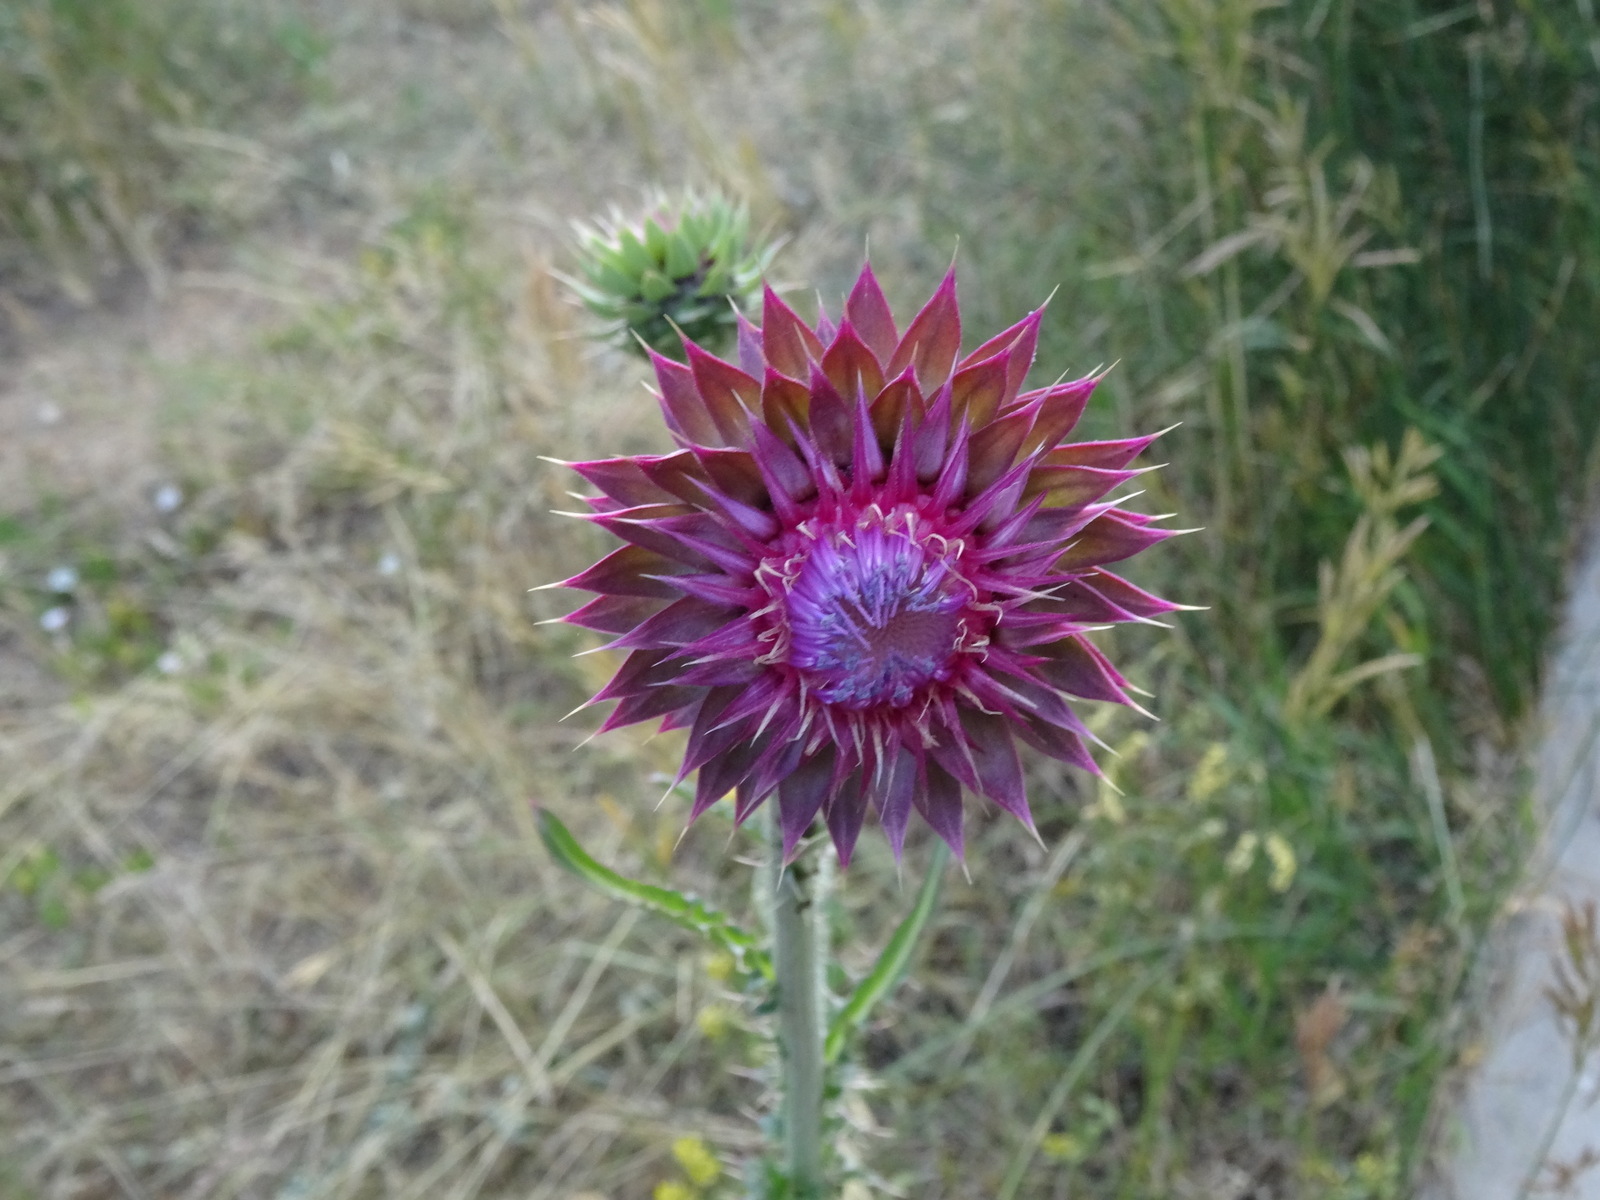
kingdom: Plantae
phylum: Tracheophyta
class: Magnoliopsida
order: Asterales
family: Asteraceae
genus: Carduus
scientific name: Carduus nutans
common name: Musk thistle
